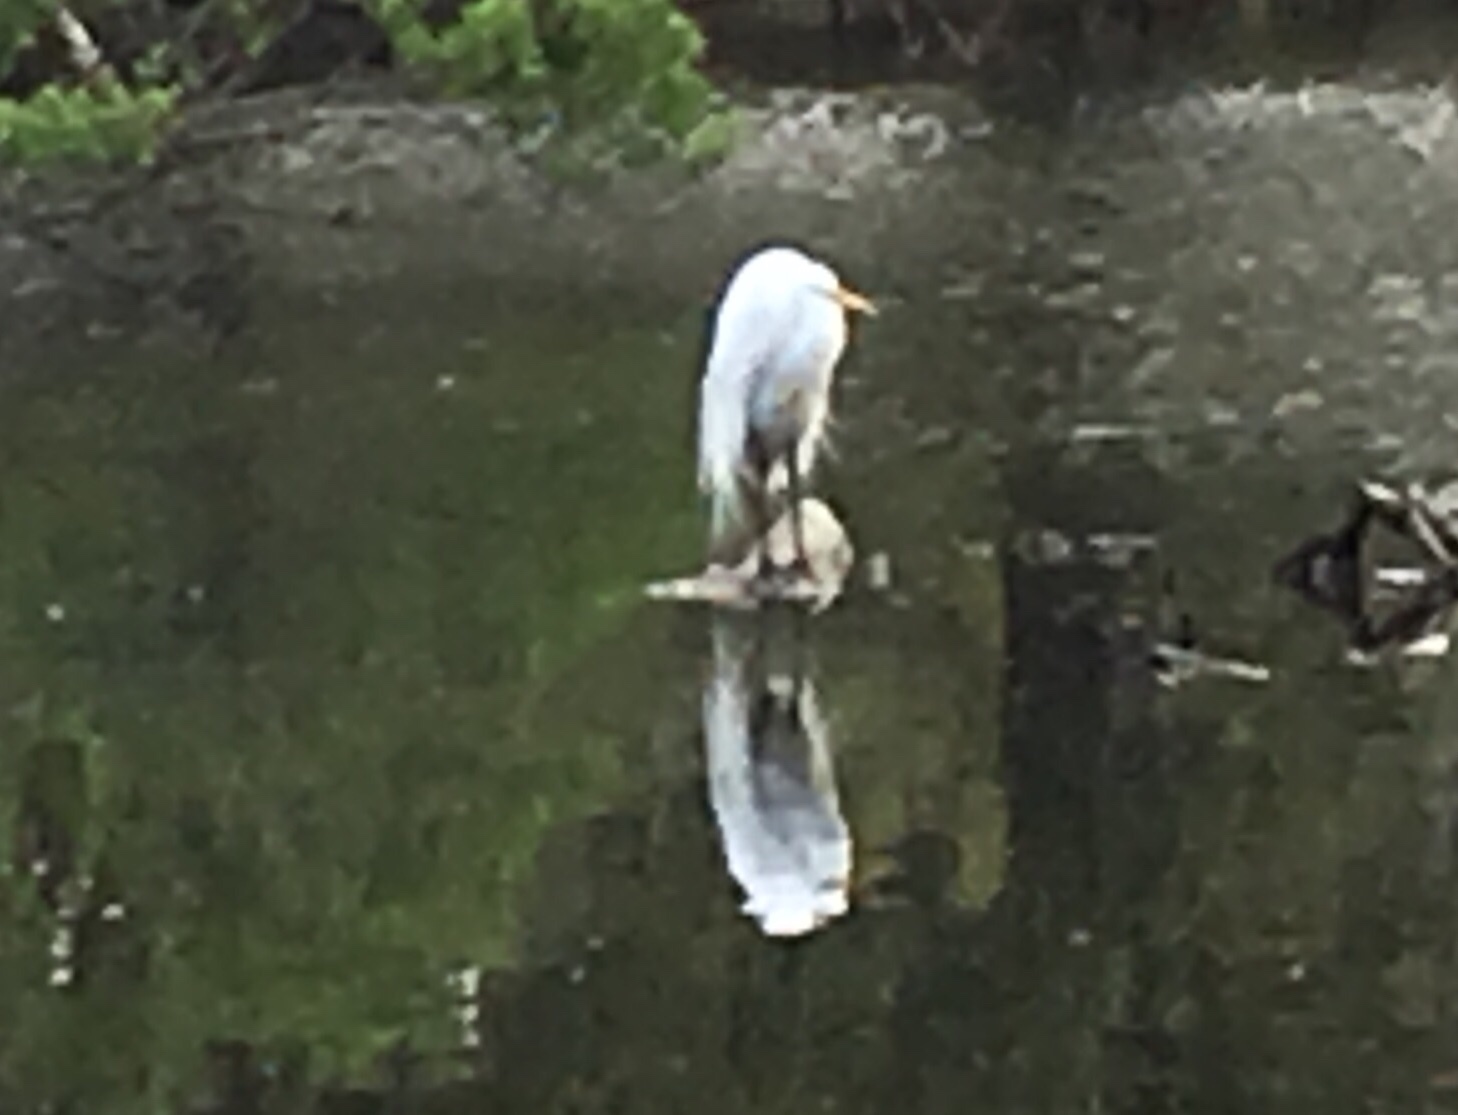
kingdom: Animalia
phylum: Chordata
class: Aves
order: Pelecaniformes
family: Ardeidae
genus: Ardea
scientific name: Ardea alba
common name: Great egret
